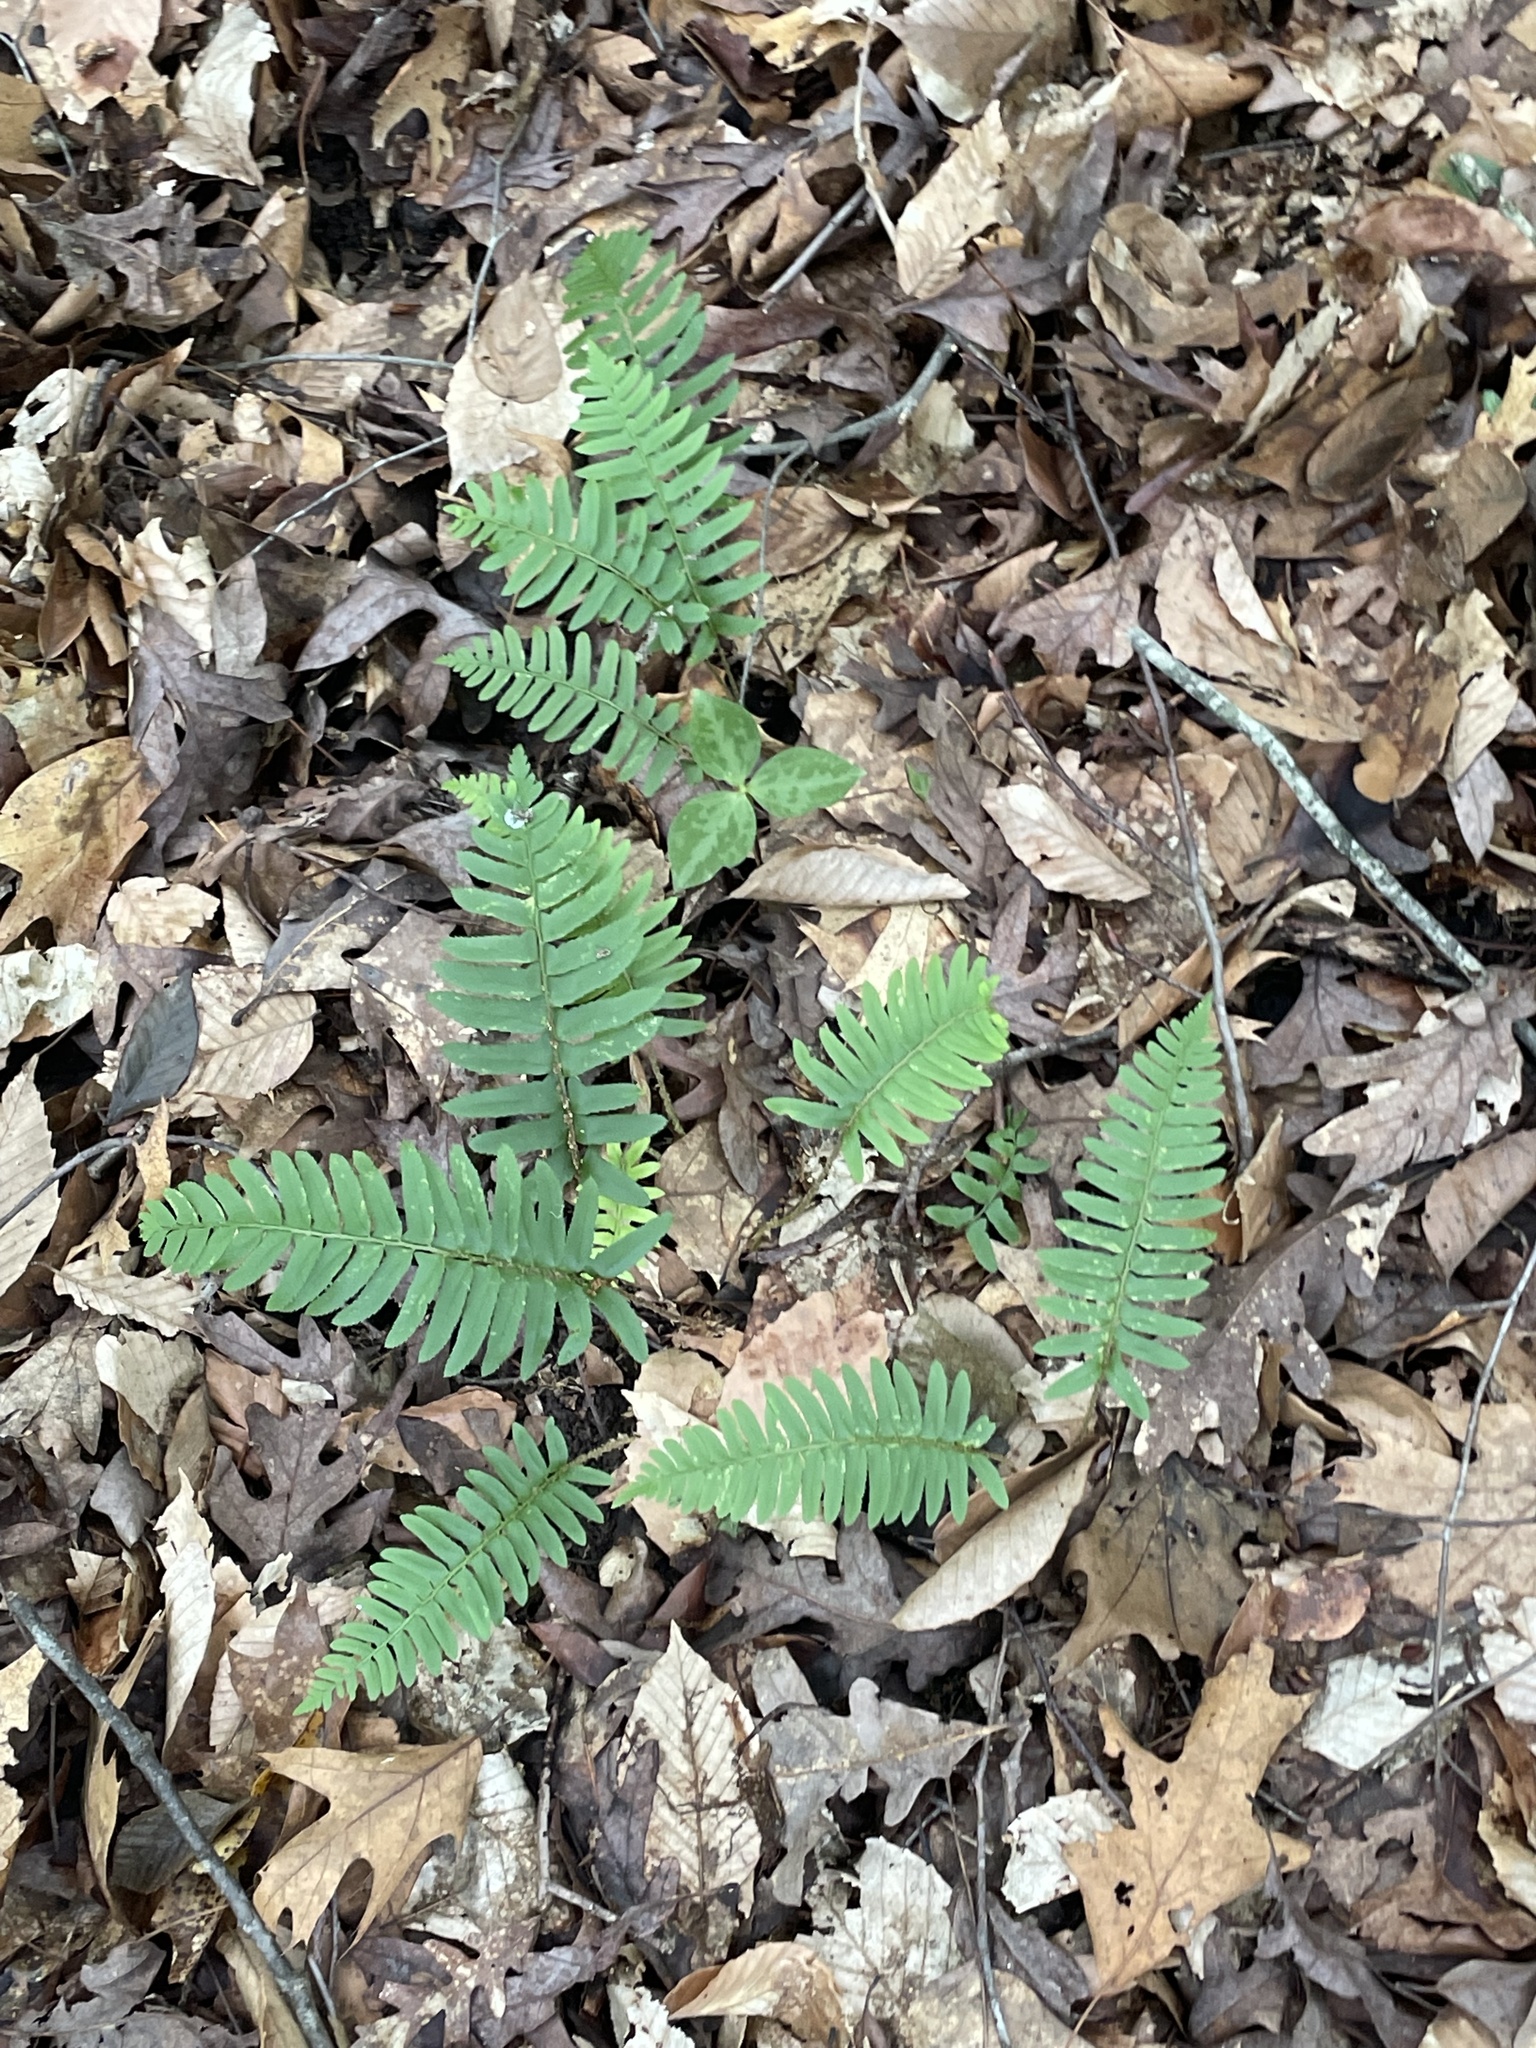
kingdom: Plantae
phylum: Tracheophyta
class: Polypodiopsida
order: Polypodiales
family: Dryopteridaceae
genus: Polystichum
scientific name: Polystichum acrostichoides
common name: Christmas fern
